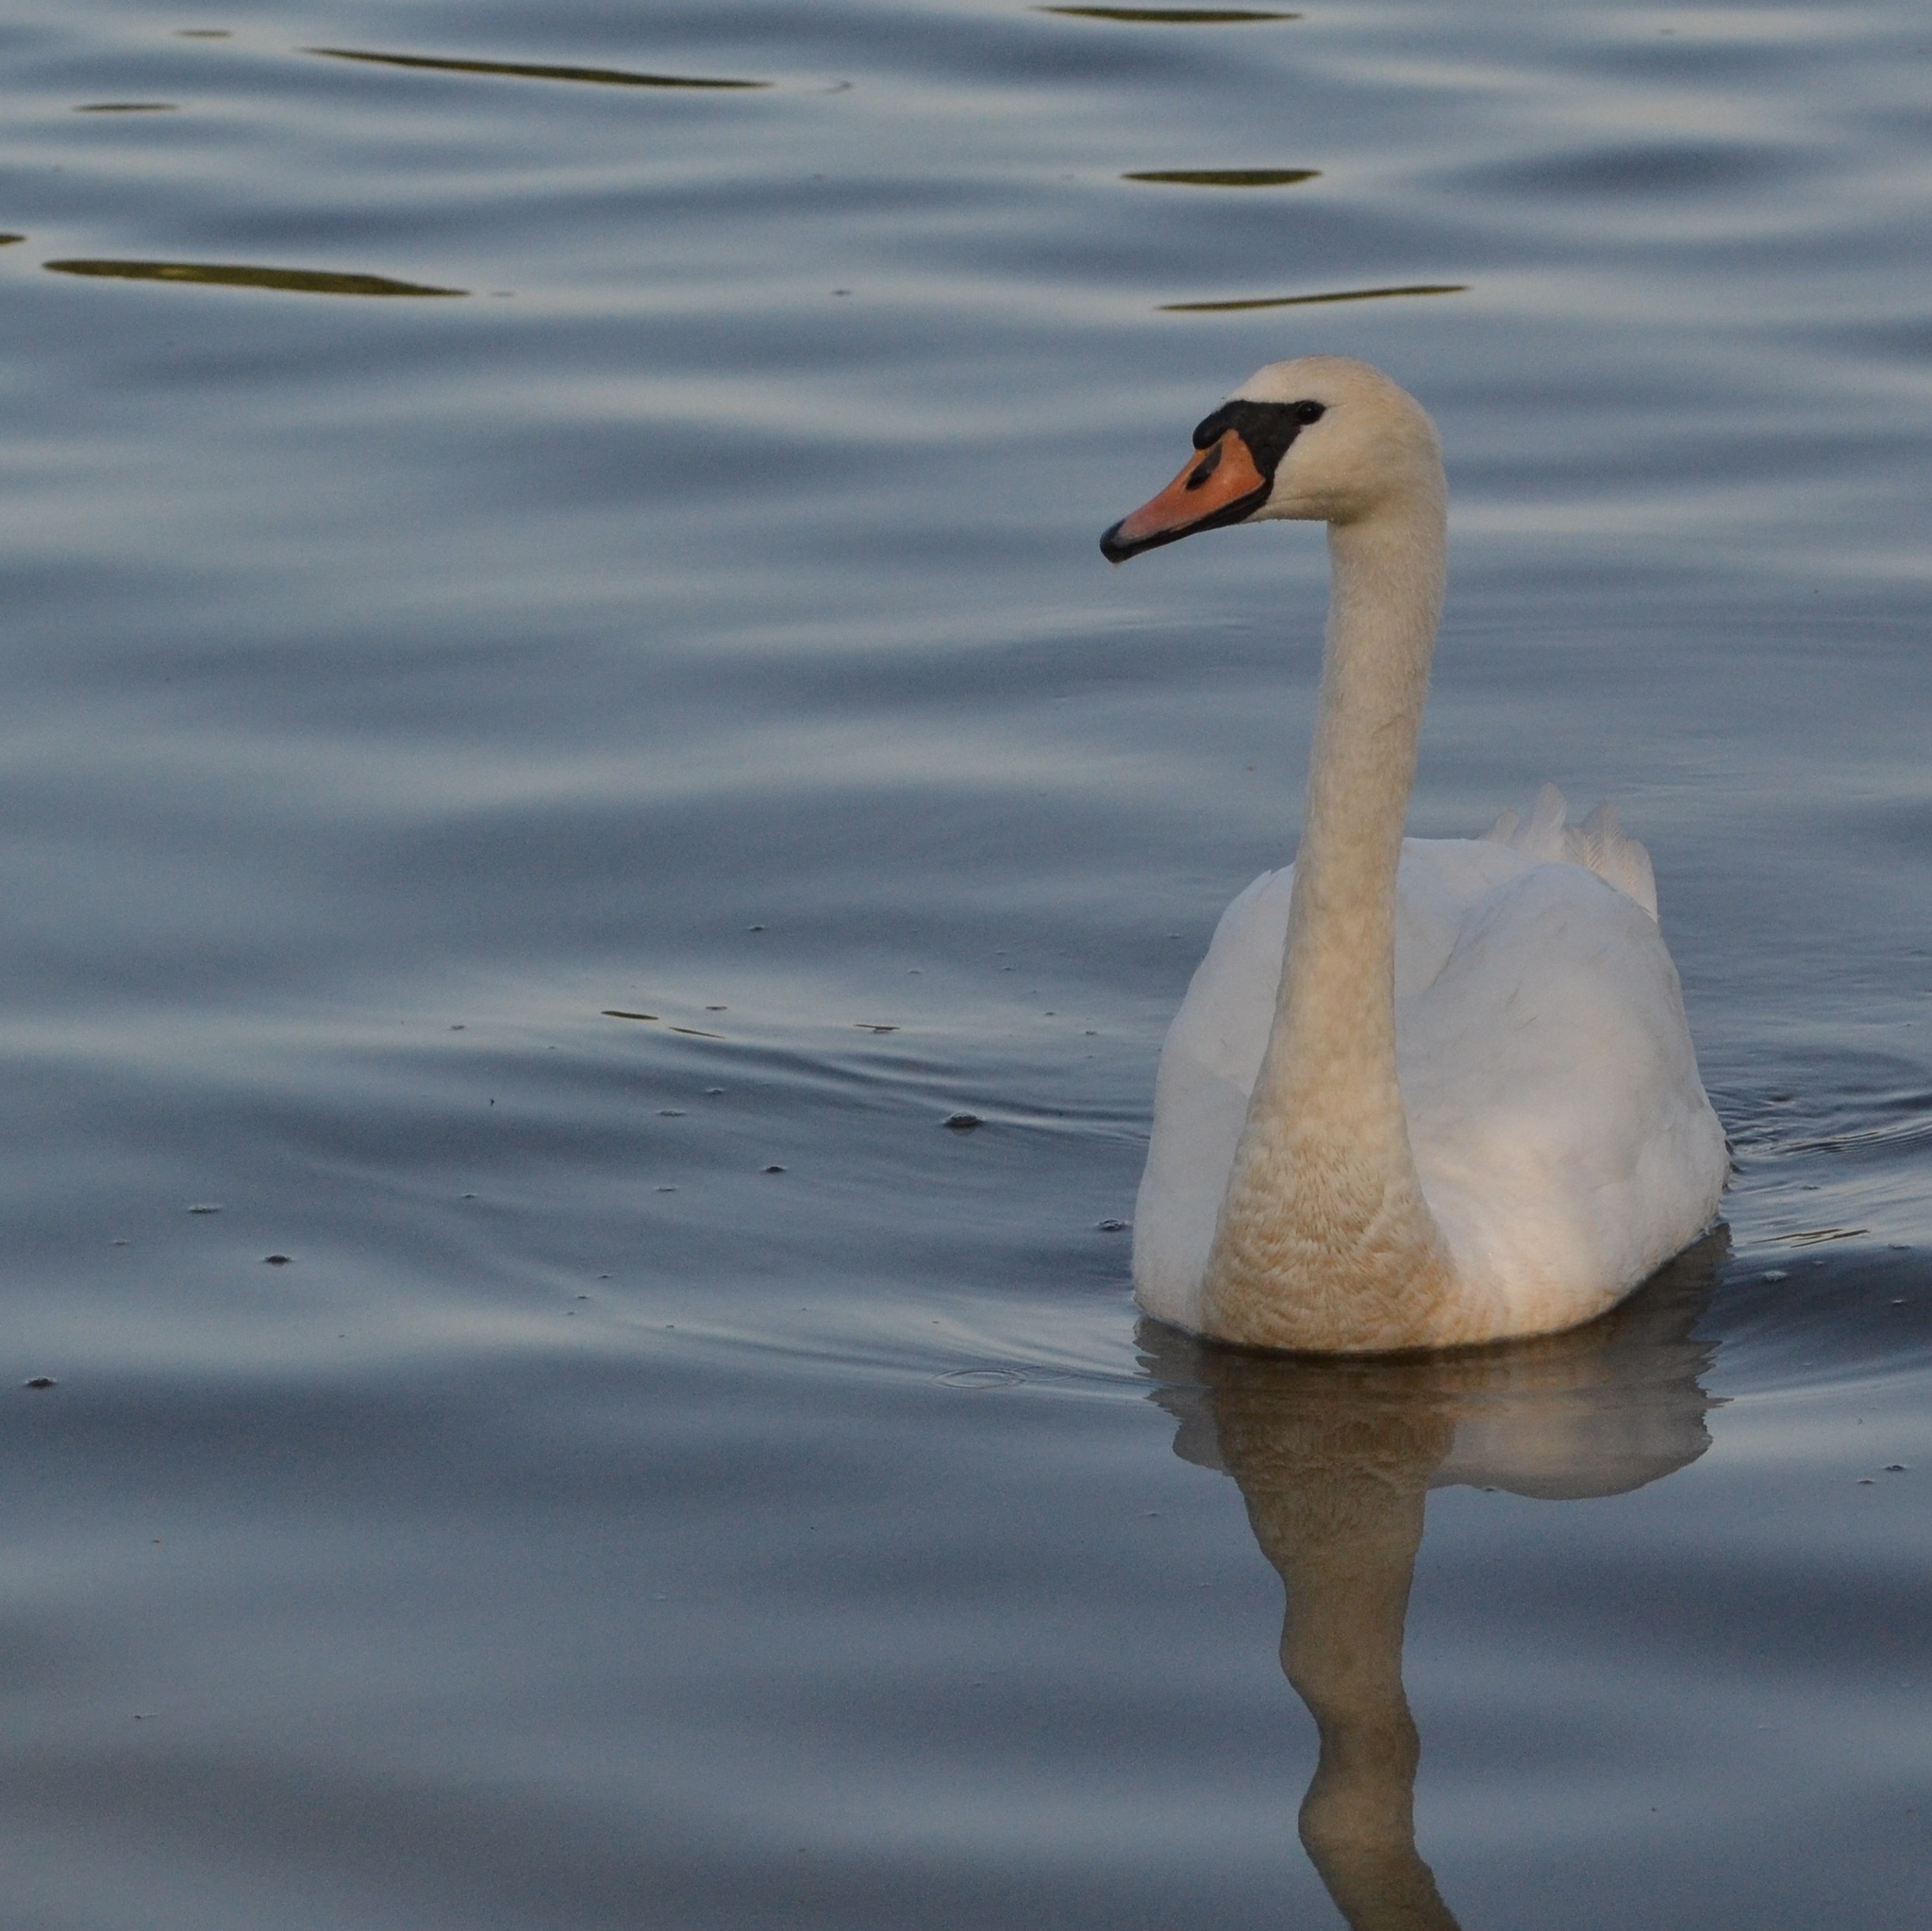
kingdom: Animalia
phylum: Chordata
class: Aves
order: Anseriformes
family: Anatidae
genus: Cygnus
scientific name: Cygnus olor
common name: Mute swan
